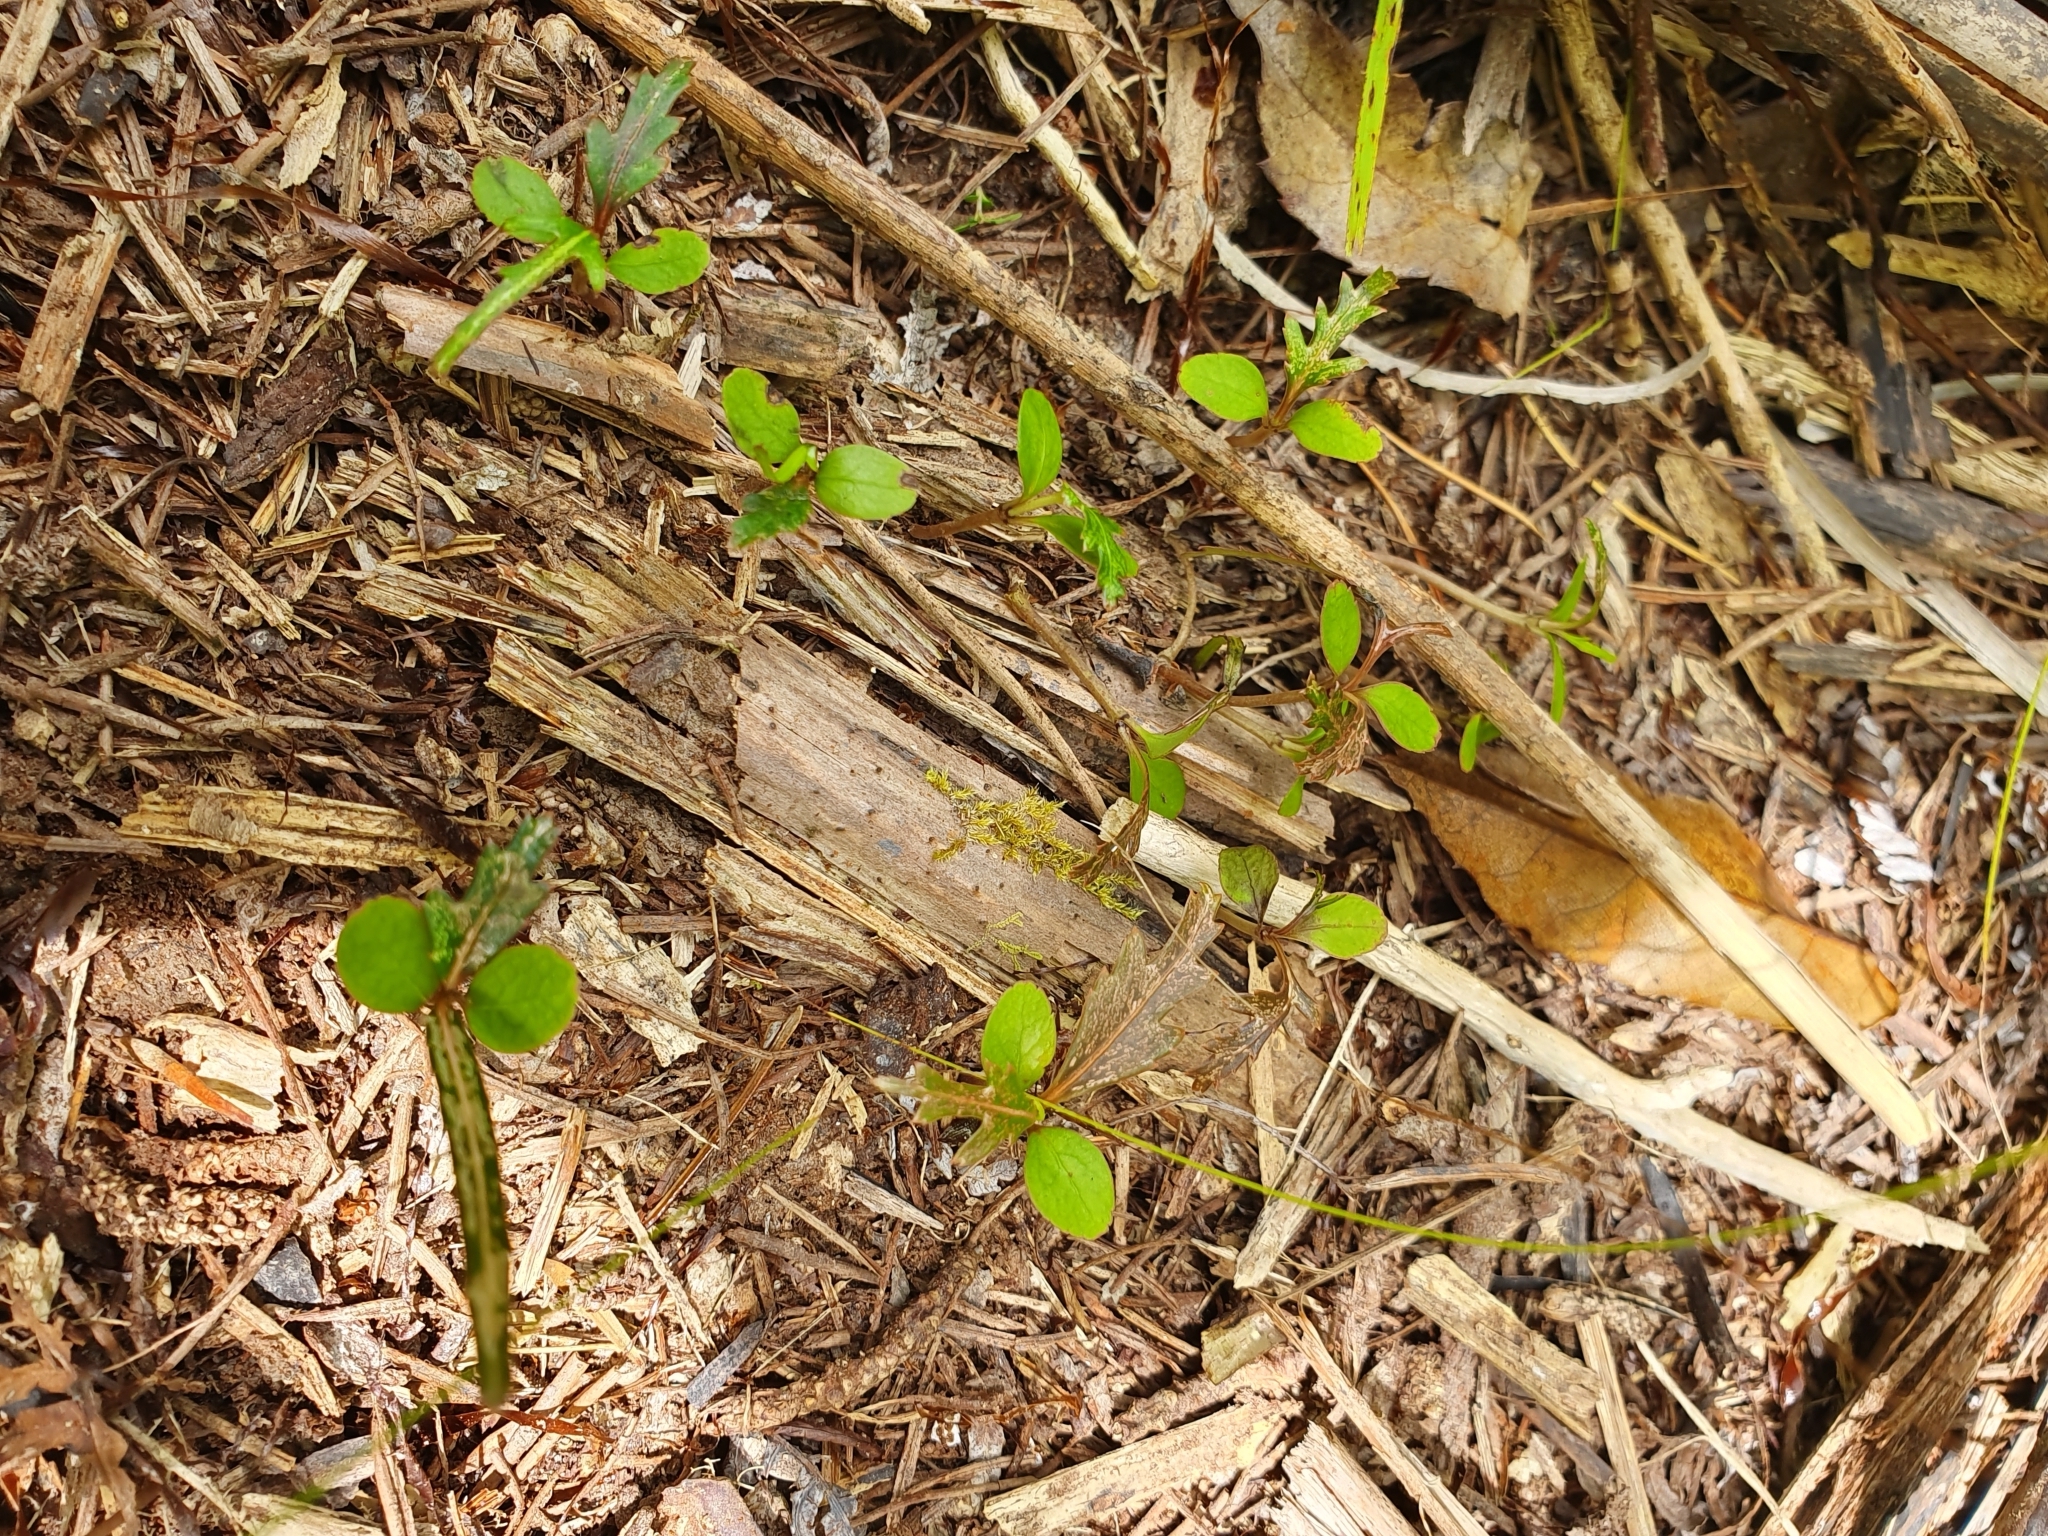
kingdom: Plantae
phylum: Tracheophyta
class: Magnoliopsida
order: Apiales
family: Araliaceae
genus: Pseudopanax
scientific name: Pseudopanax crassifolius
